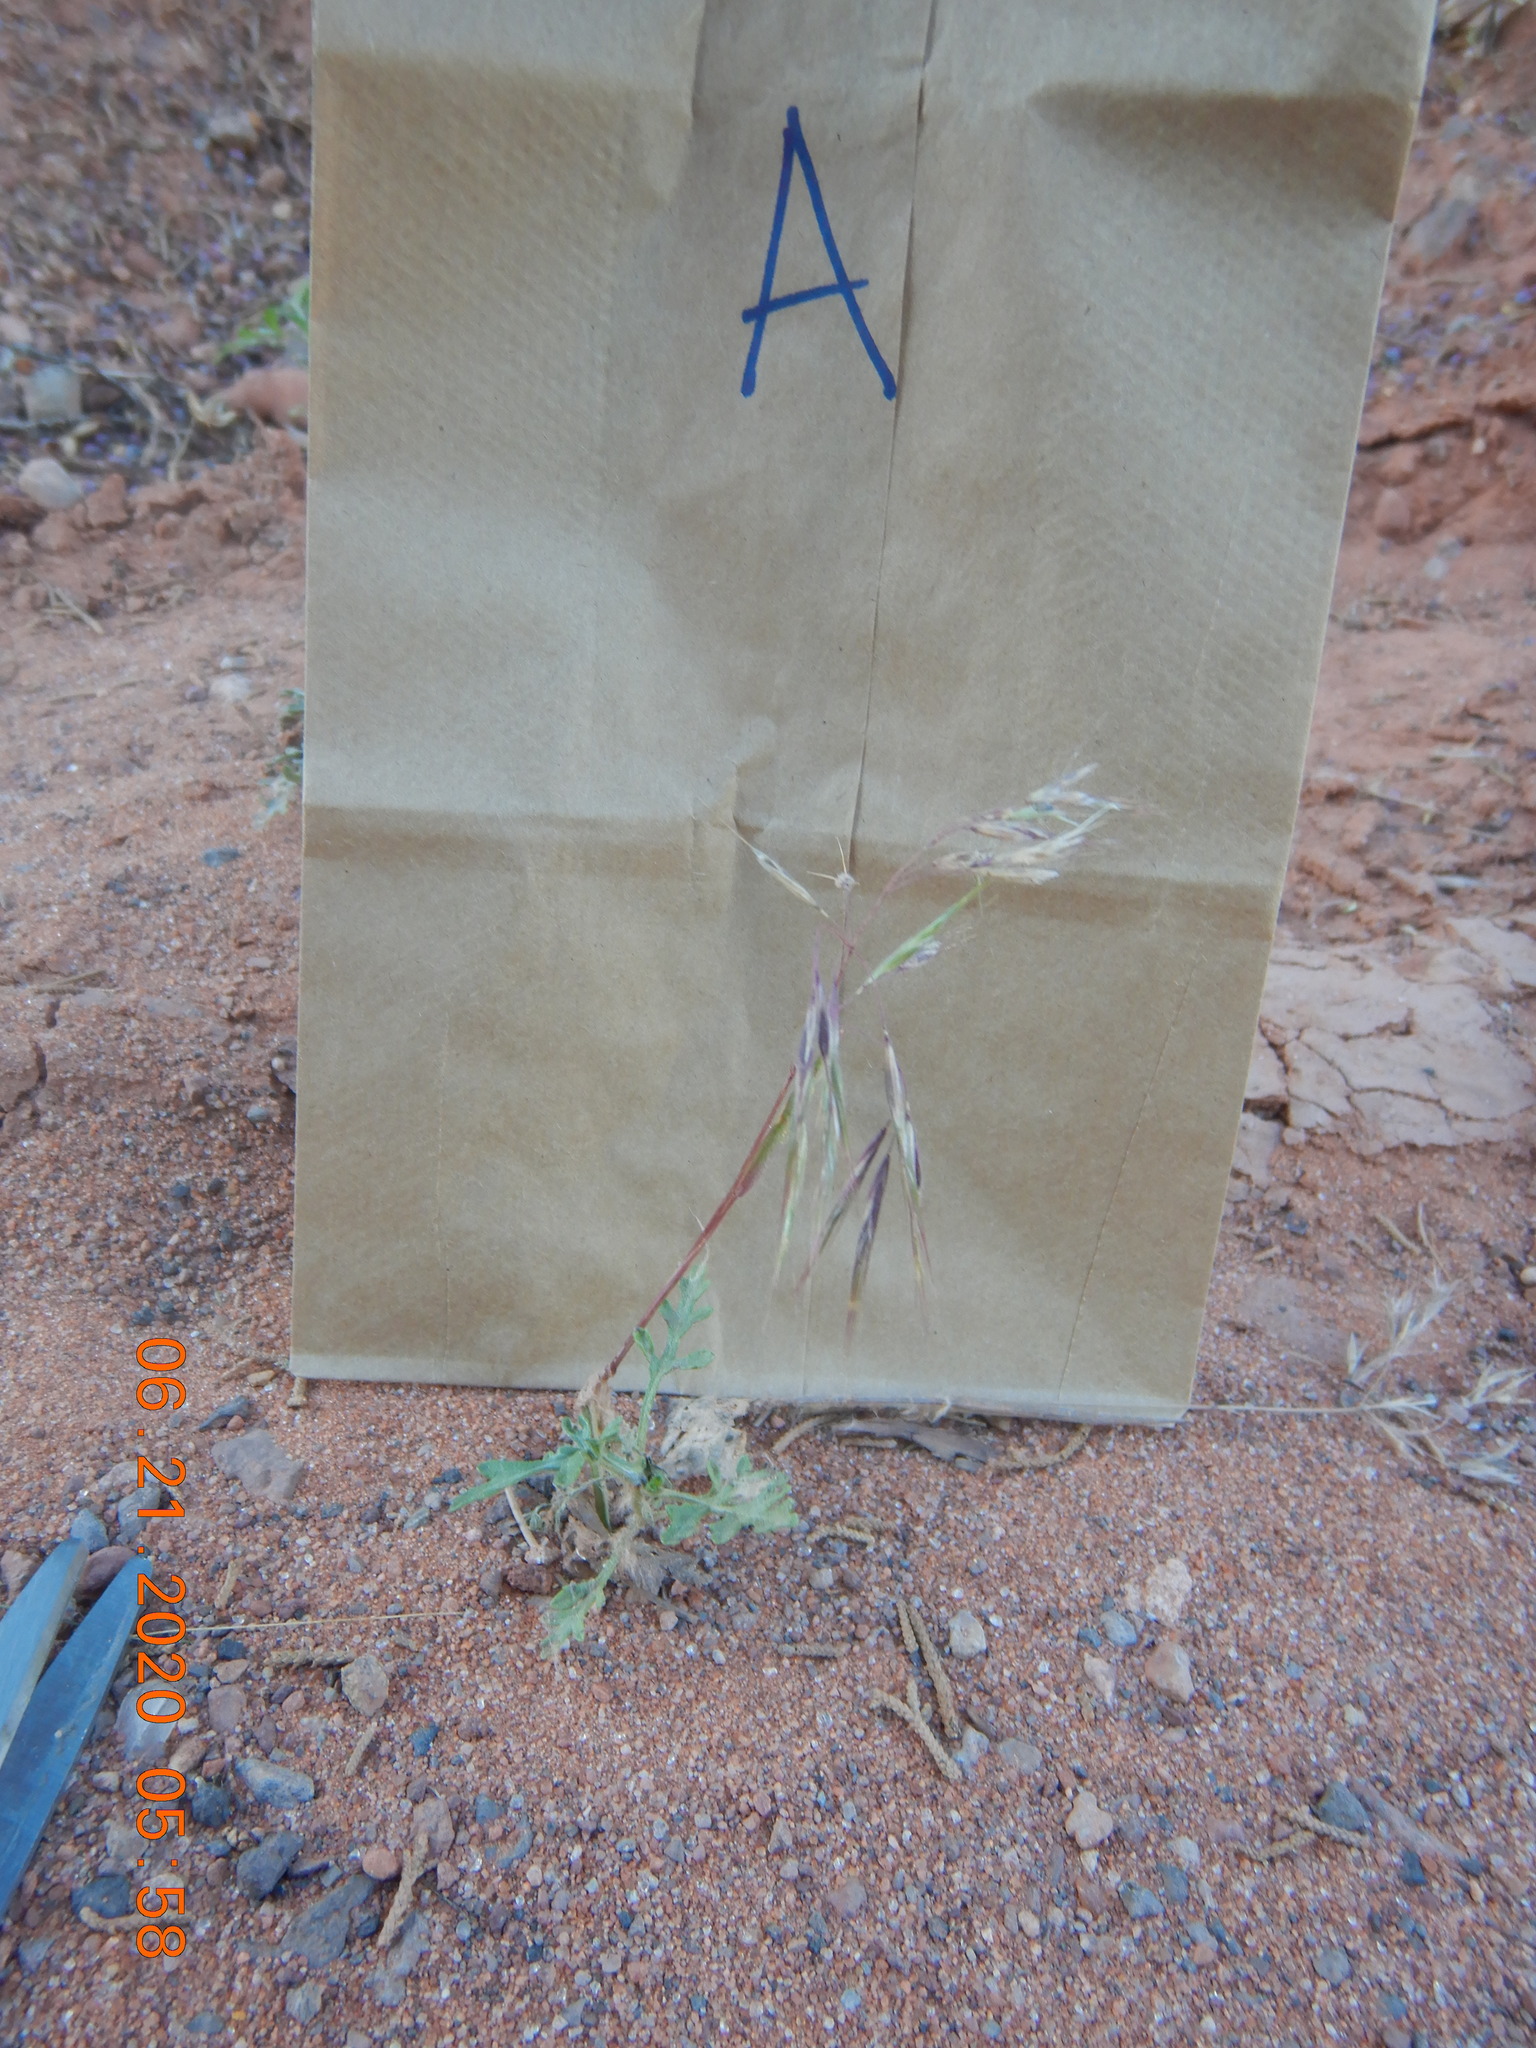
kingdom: Plantae
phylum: Tracheophyta
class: Liliopsida
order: Poales
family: Poaceae
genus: Bromus
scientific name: Bromus tectorum
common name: Cheatgrass
